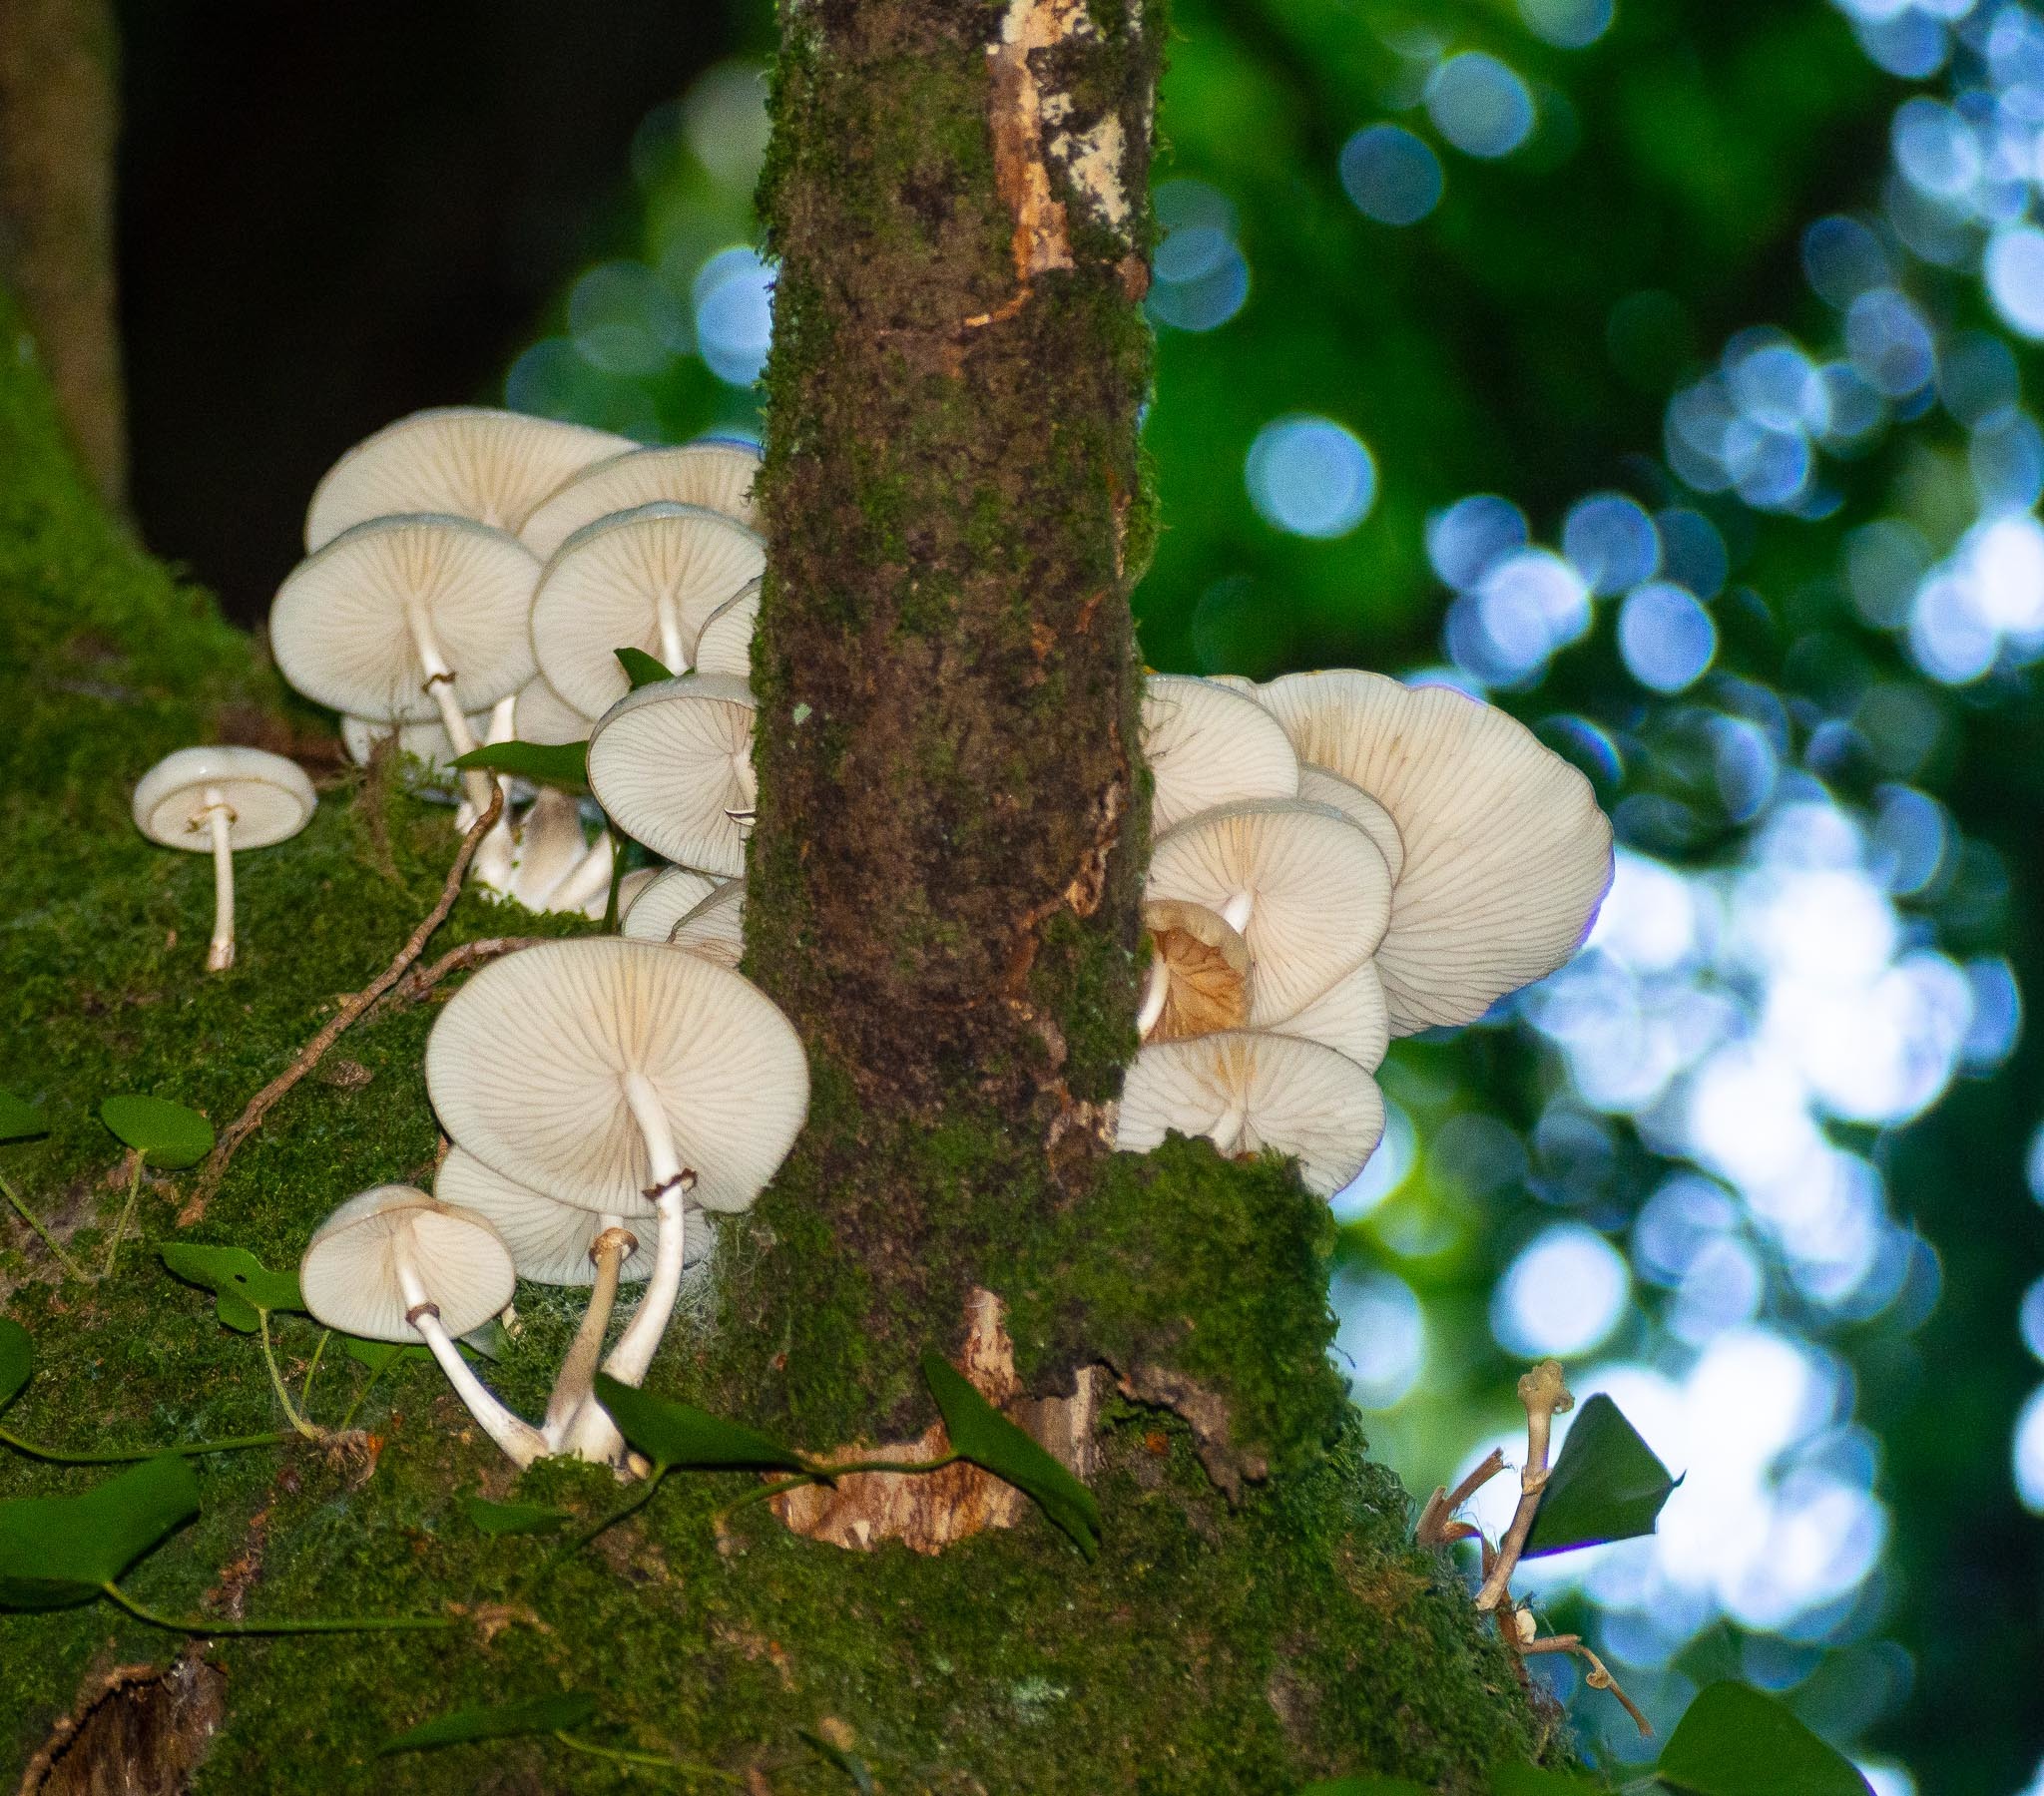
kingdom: Fungi
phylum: Basidiomycota
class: Agaricomycetes
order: Agaricales
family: Physalacriaceae
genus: Mucidula
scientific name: Mucidula mucida
